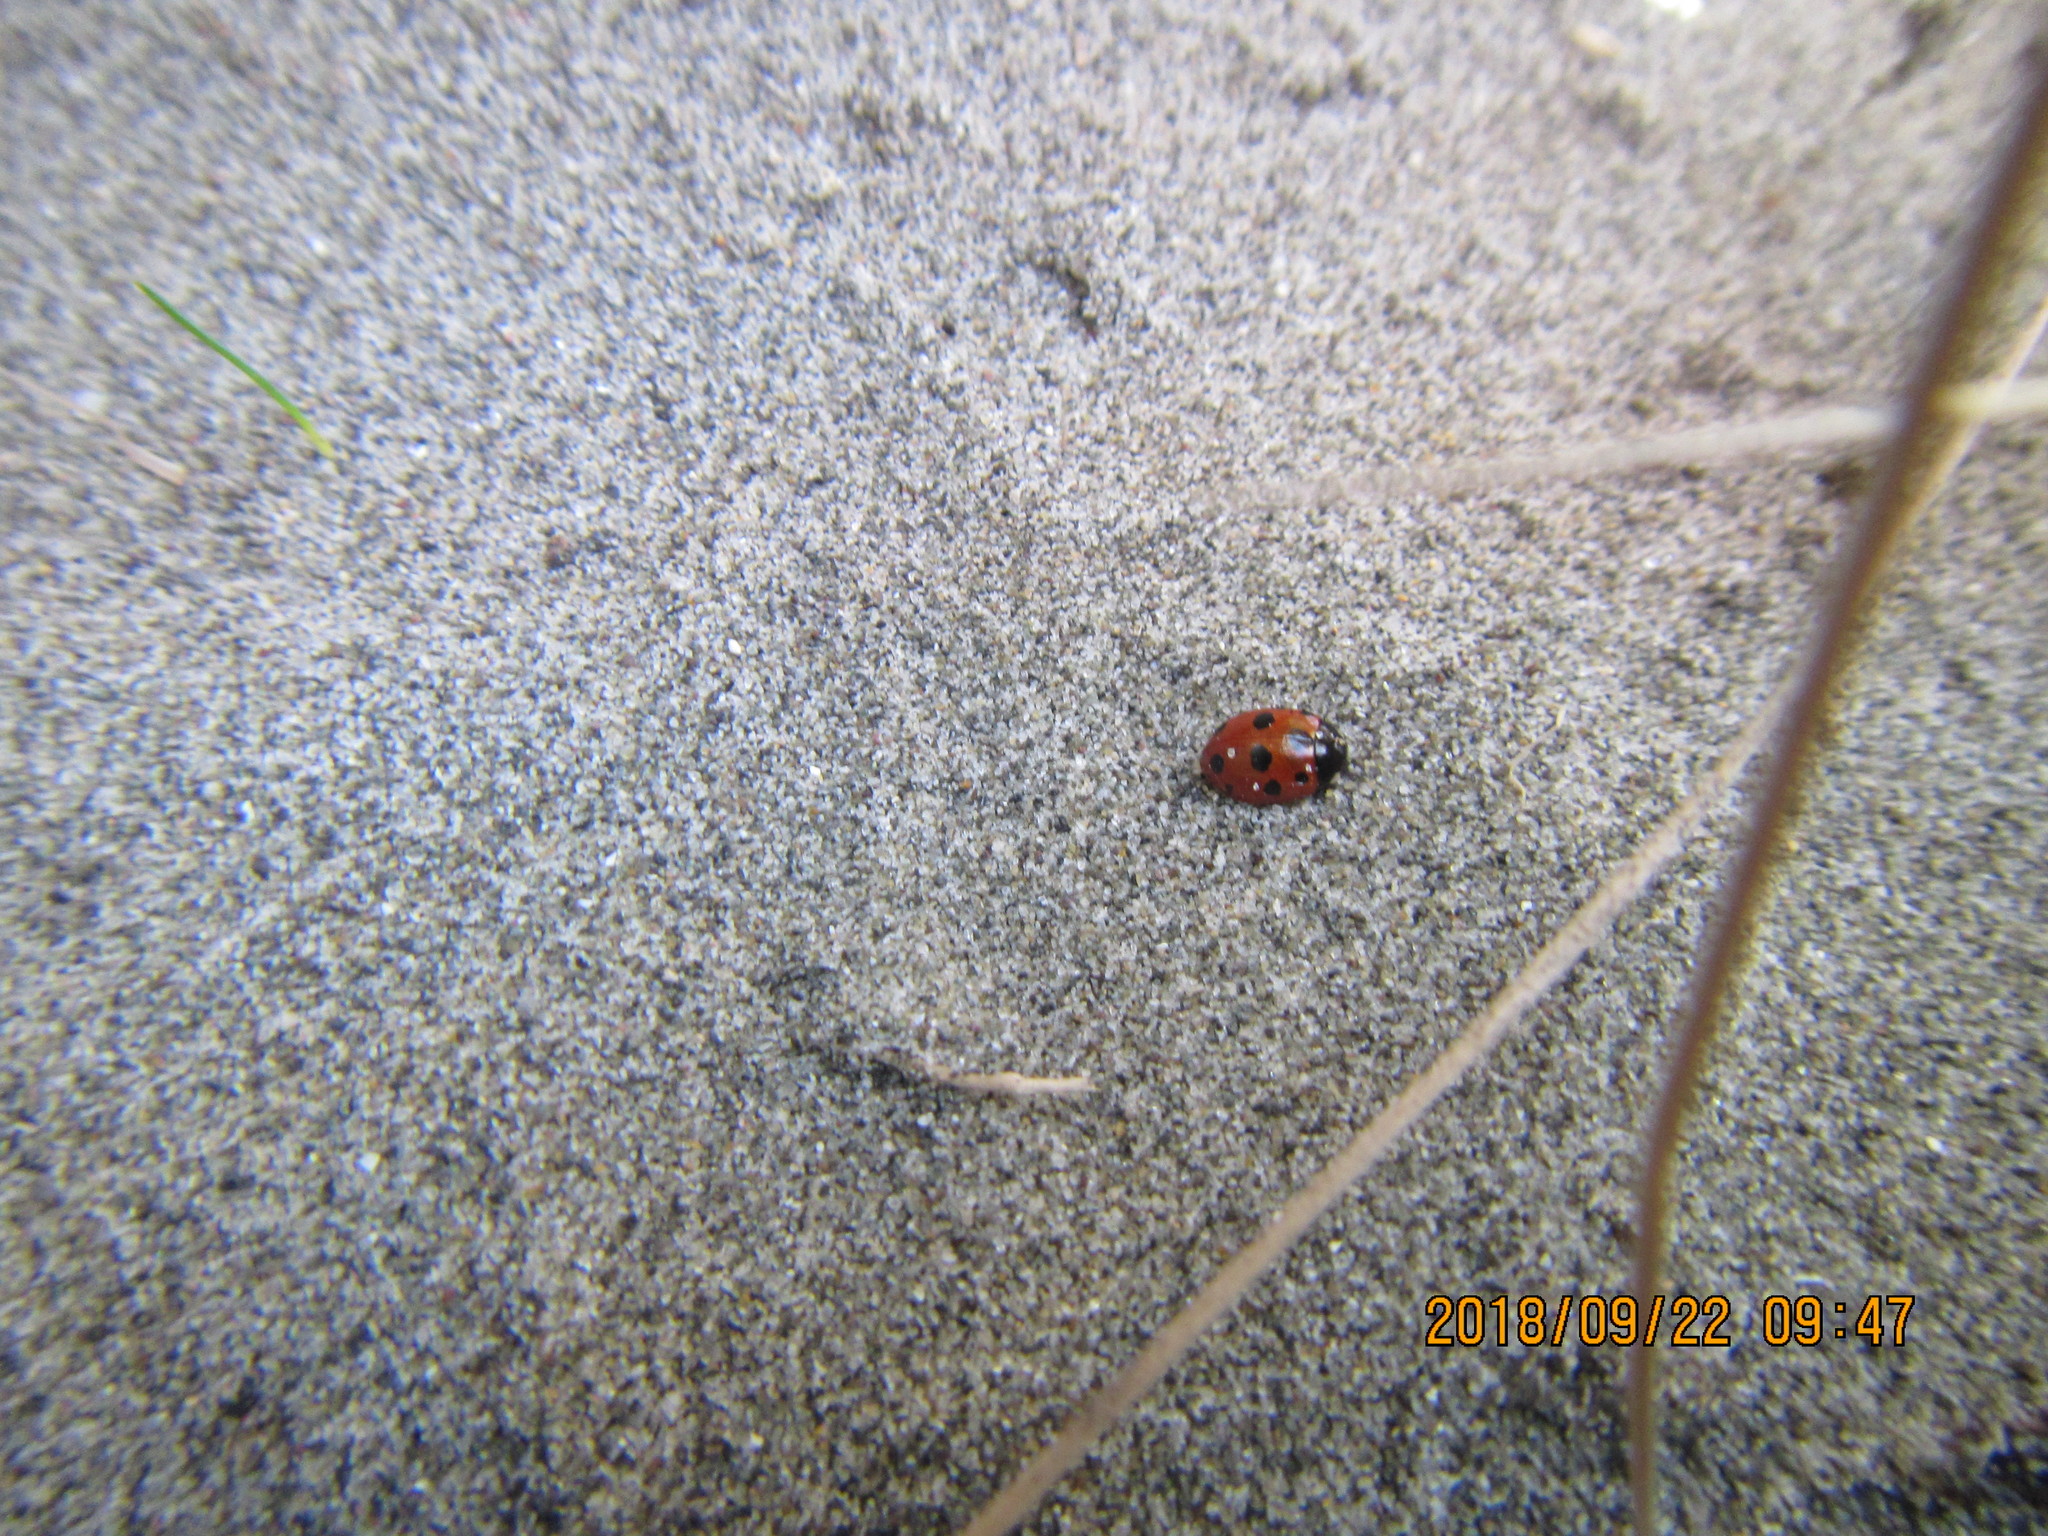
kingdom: Animalia
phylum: Arthropoda
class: Insecta
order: Coleoptera
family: Coccinellidae
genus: Coccinella
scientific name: Coccinella undecimpunctata
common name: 11-spot ladybird
